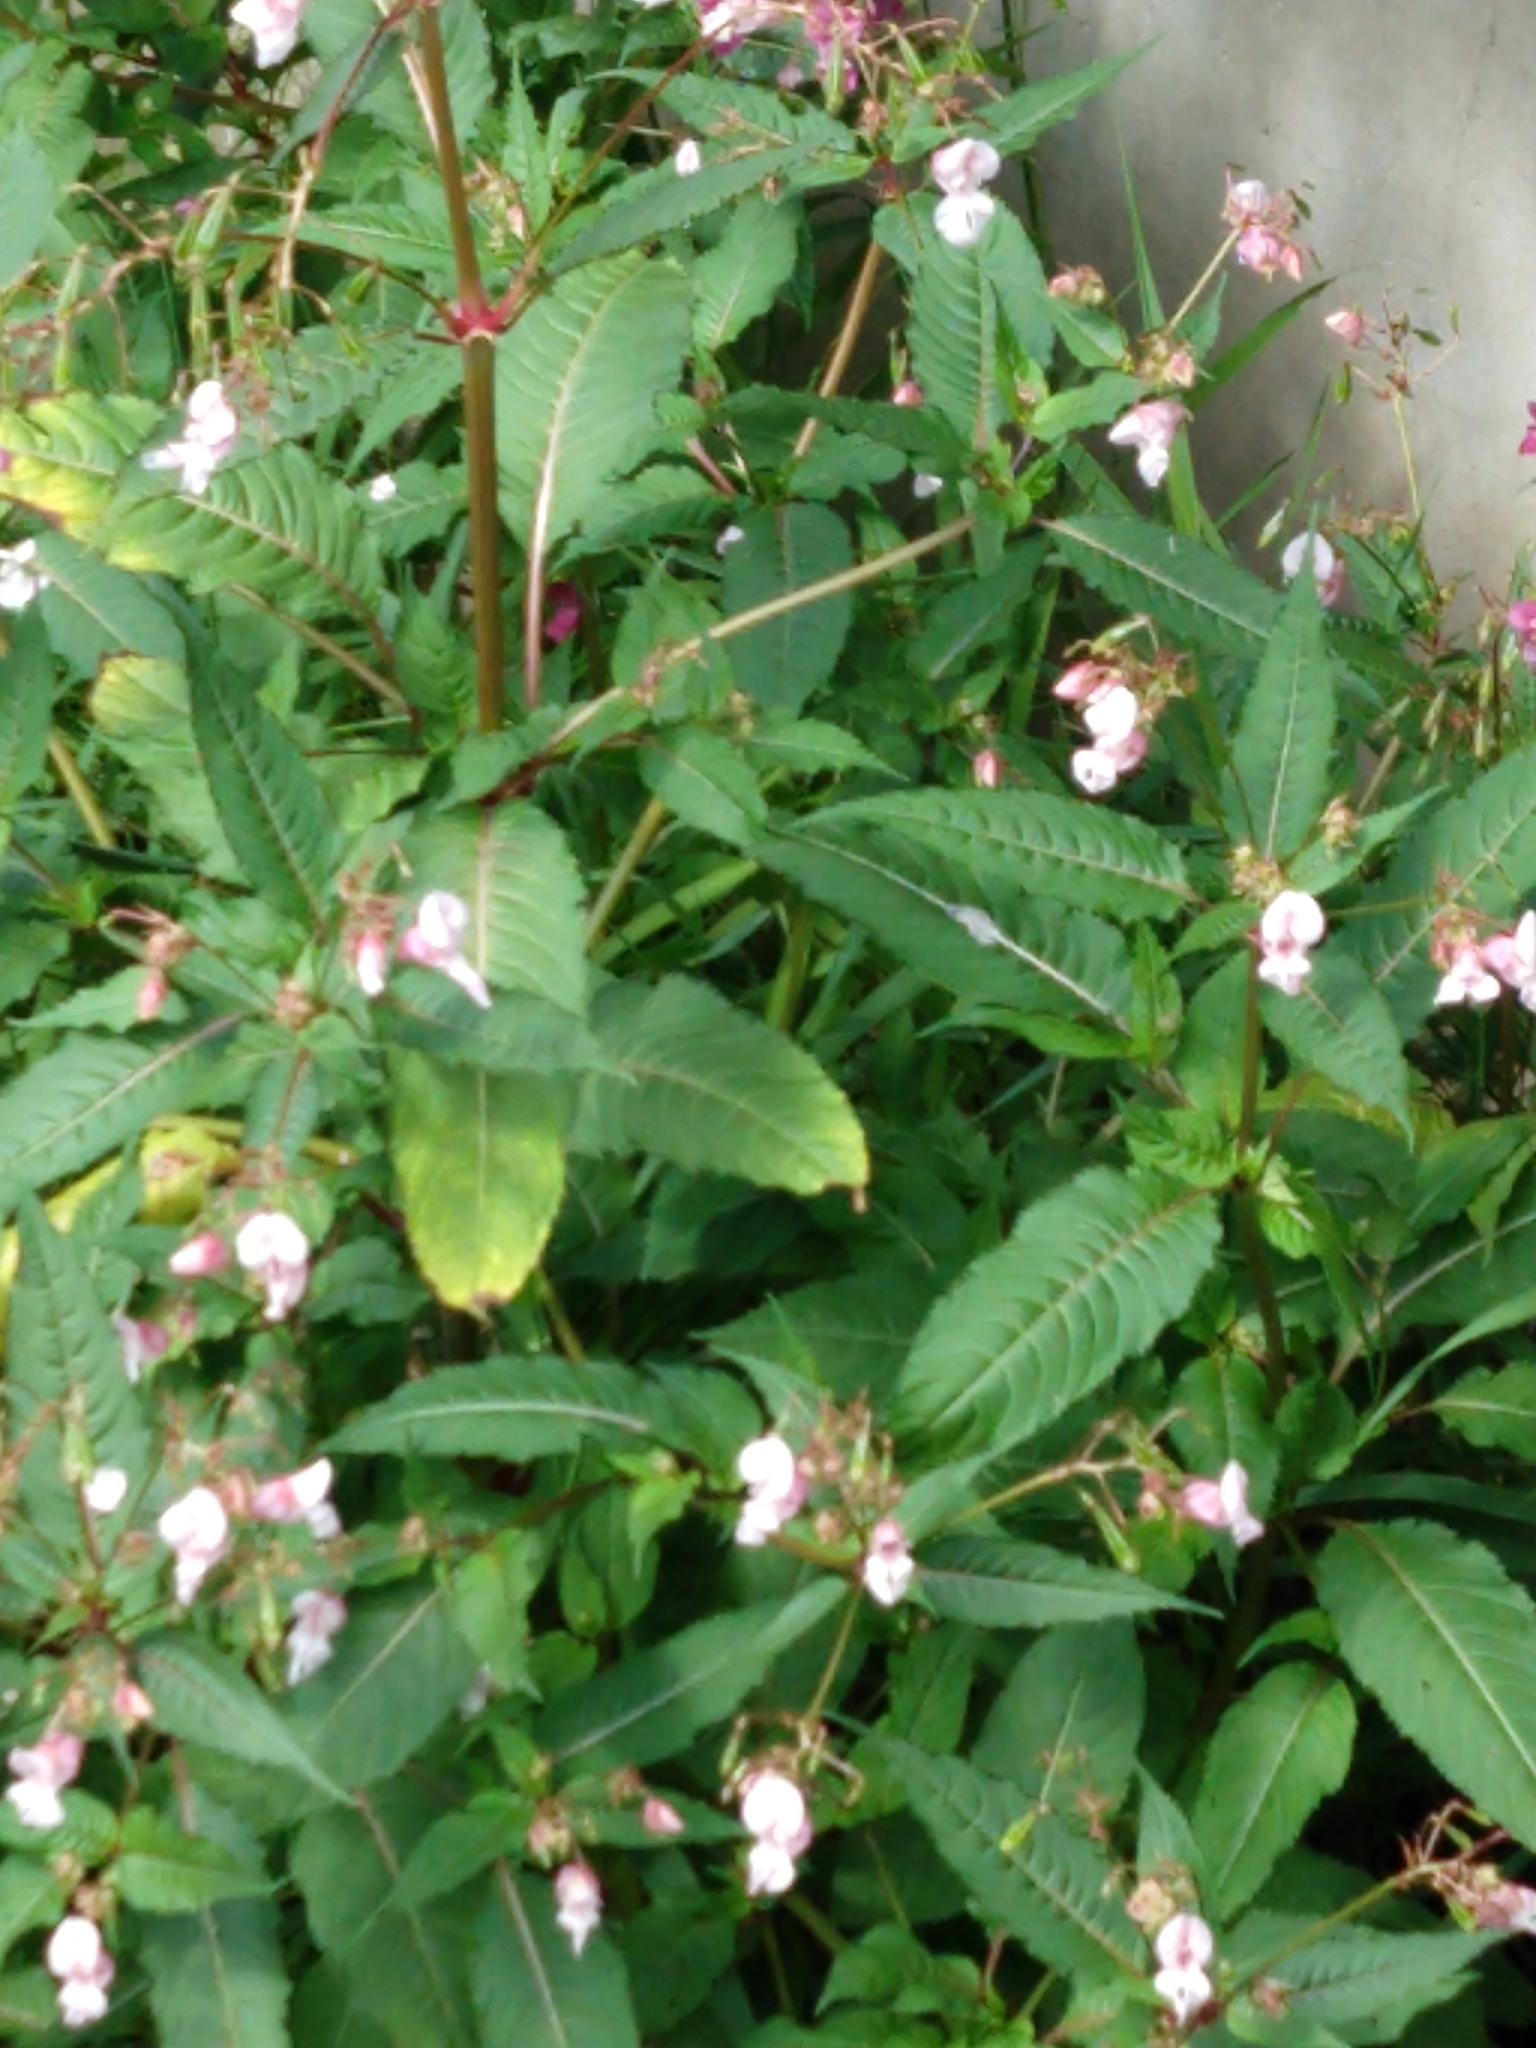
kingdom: Plantae
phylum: Tracheophyta
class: Magnoliopsida
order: Ericales
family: Balsaminaceae
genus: Impatiens
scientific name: Impatiens glandulifera
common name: Himalayan balsam
